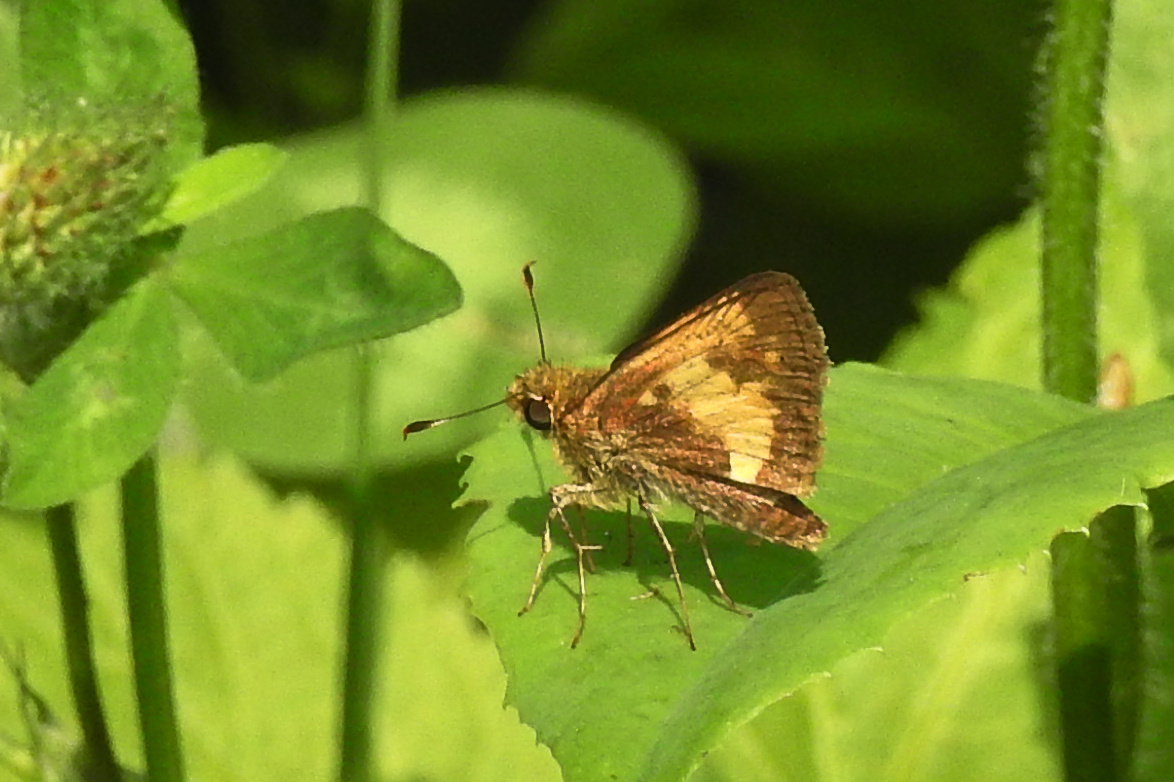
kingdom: Animalia
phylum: Arthropoda
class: Insecta
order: Lepidoptera
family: Hesperiidae
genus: Lon
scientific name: Lon hobomok
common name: Hobomok skipper
